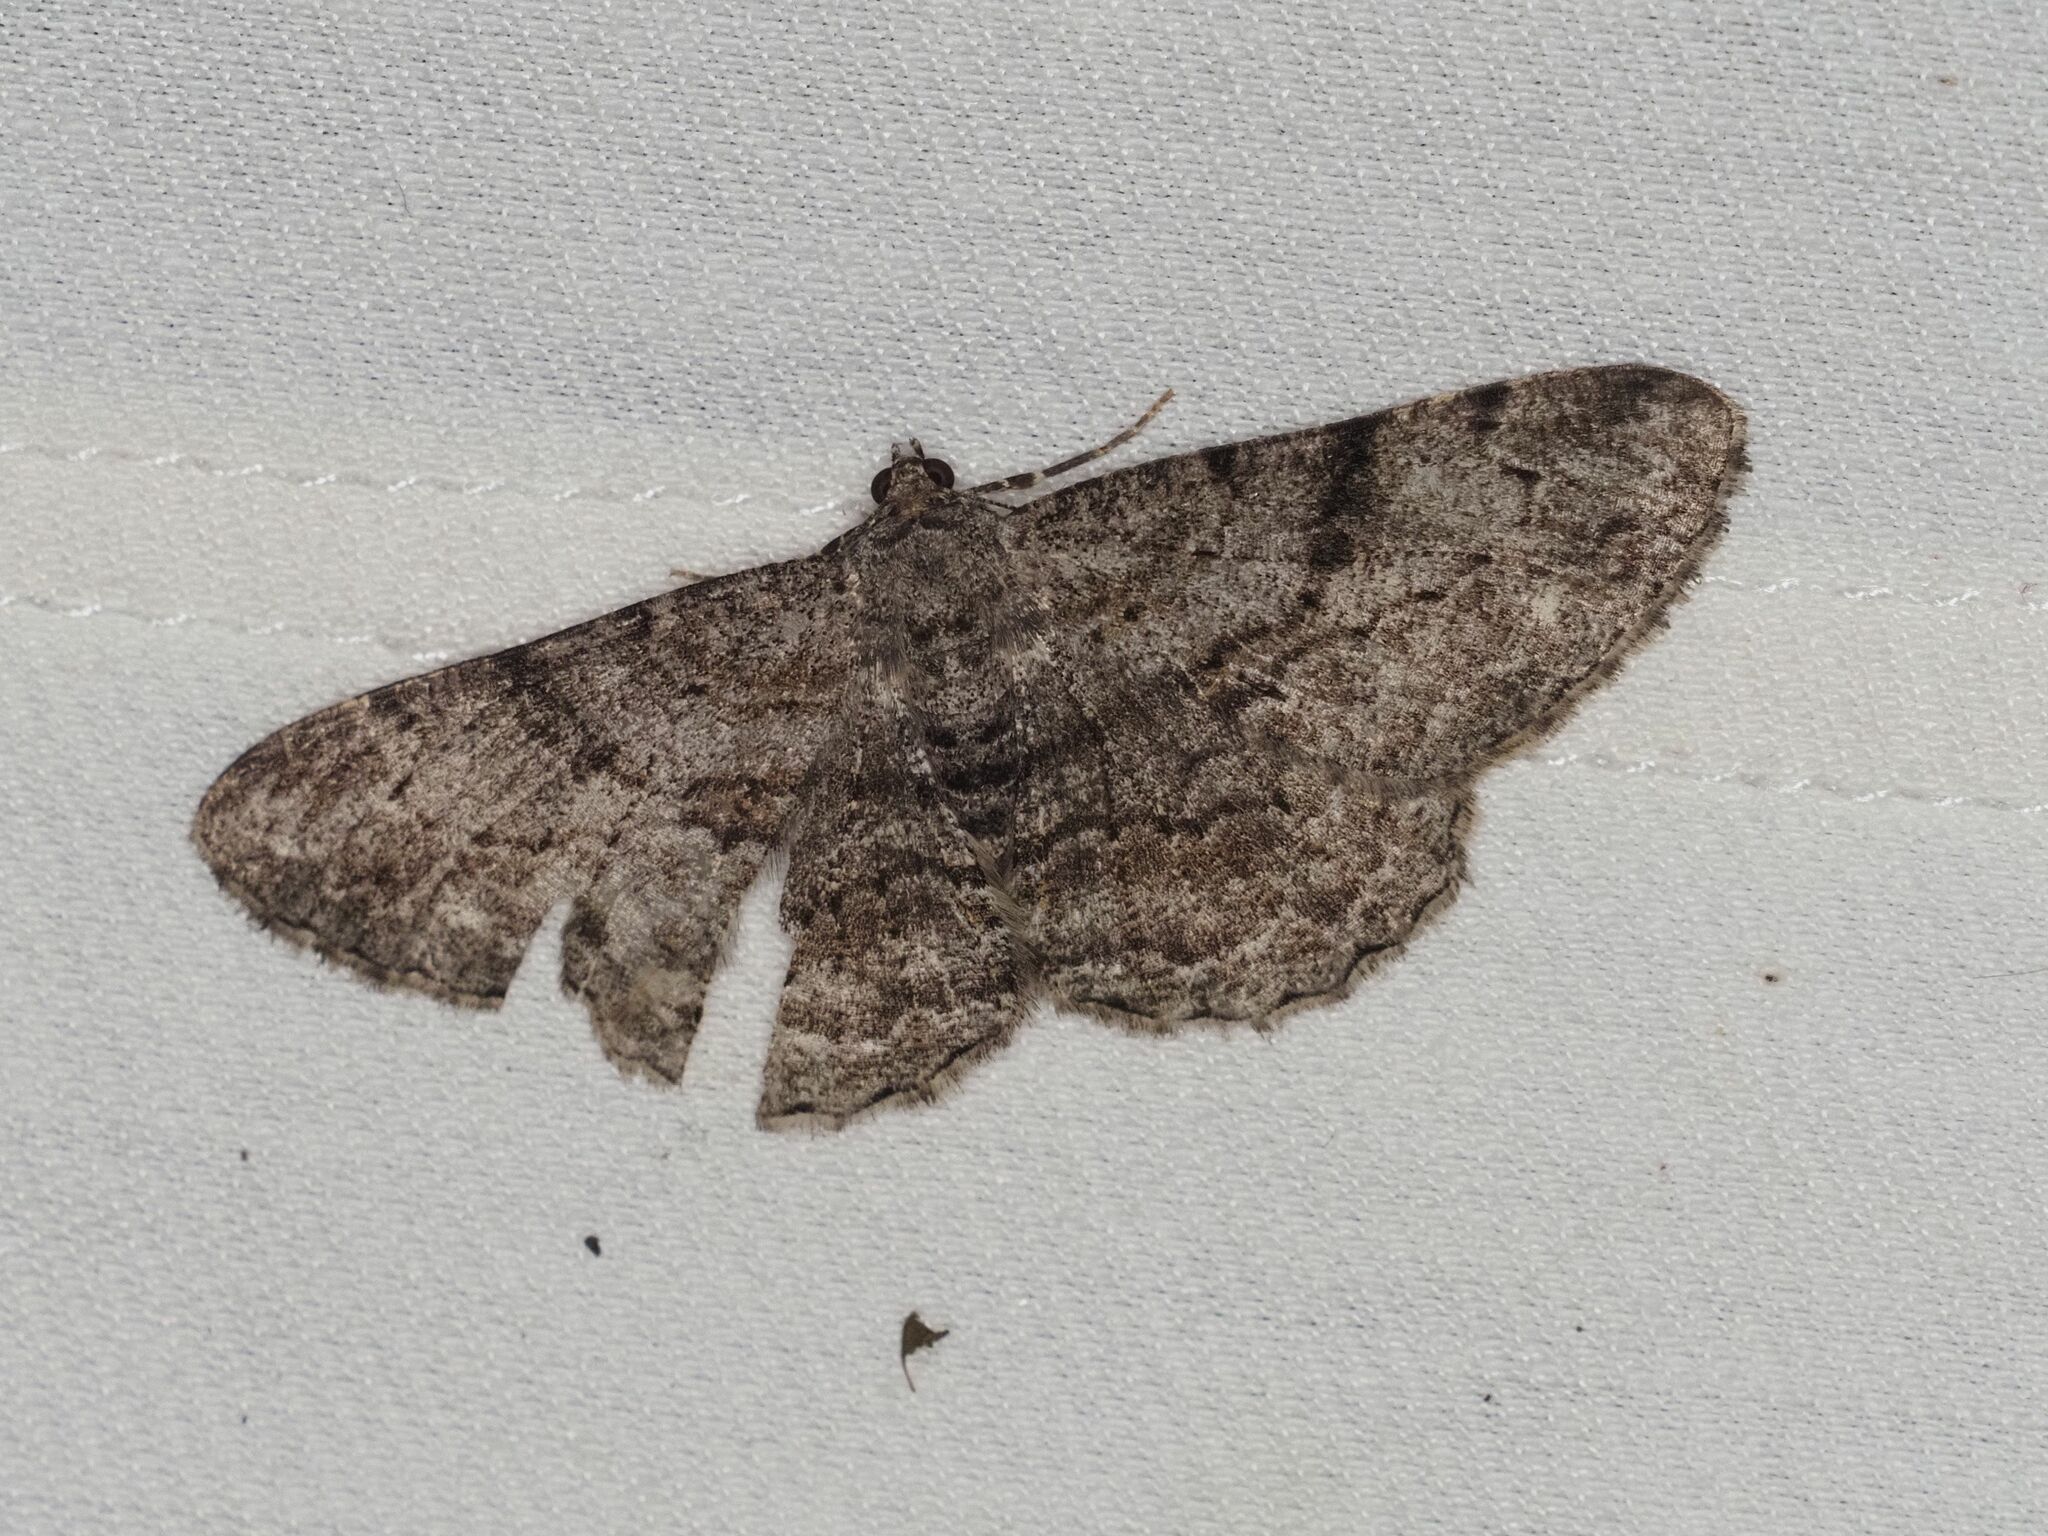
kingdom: Animalia
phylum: Arthropoda
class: Insecta
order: Lepidoptera
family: Geometridae
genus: Peribatodes
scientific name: Peribatodes rhomboidaria
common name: Willow beauty
